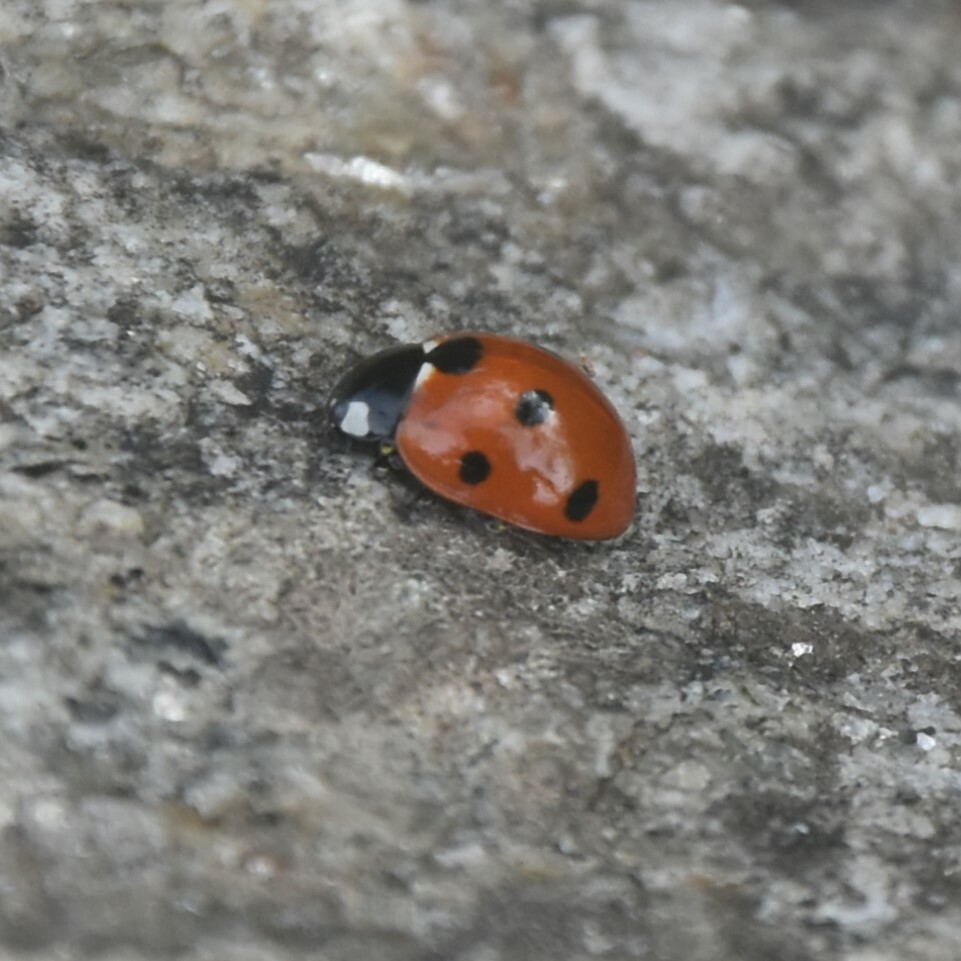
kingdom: Animalia
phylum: Arthropoda
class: Insecta
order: Coleoptera
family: Coccinellidae
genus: Coccinella
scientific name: Coccinella septempunctata
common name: Sevenspotted lady beetle
